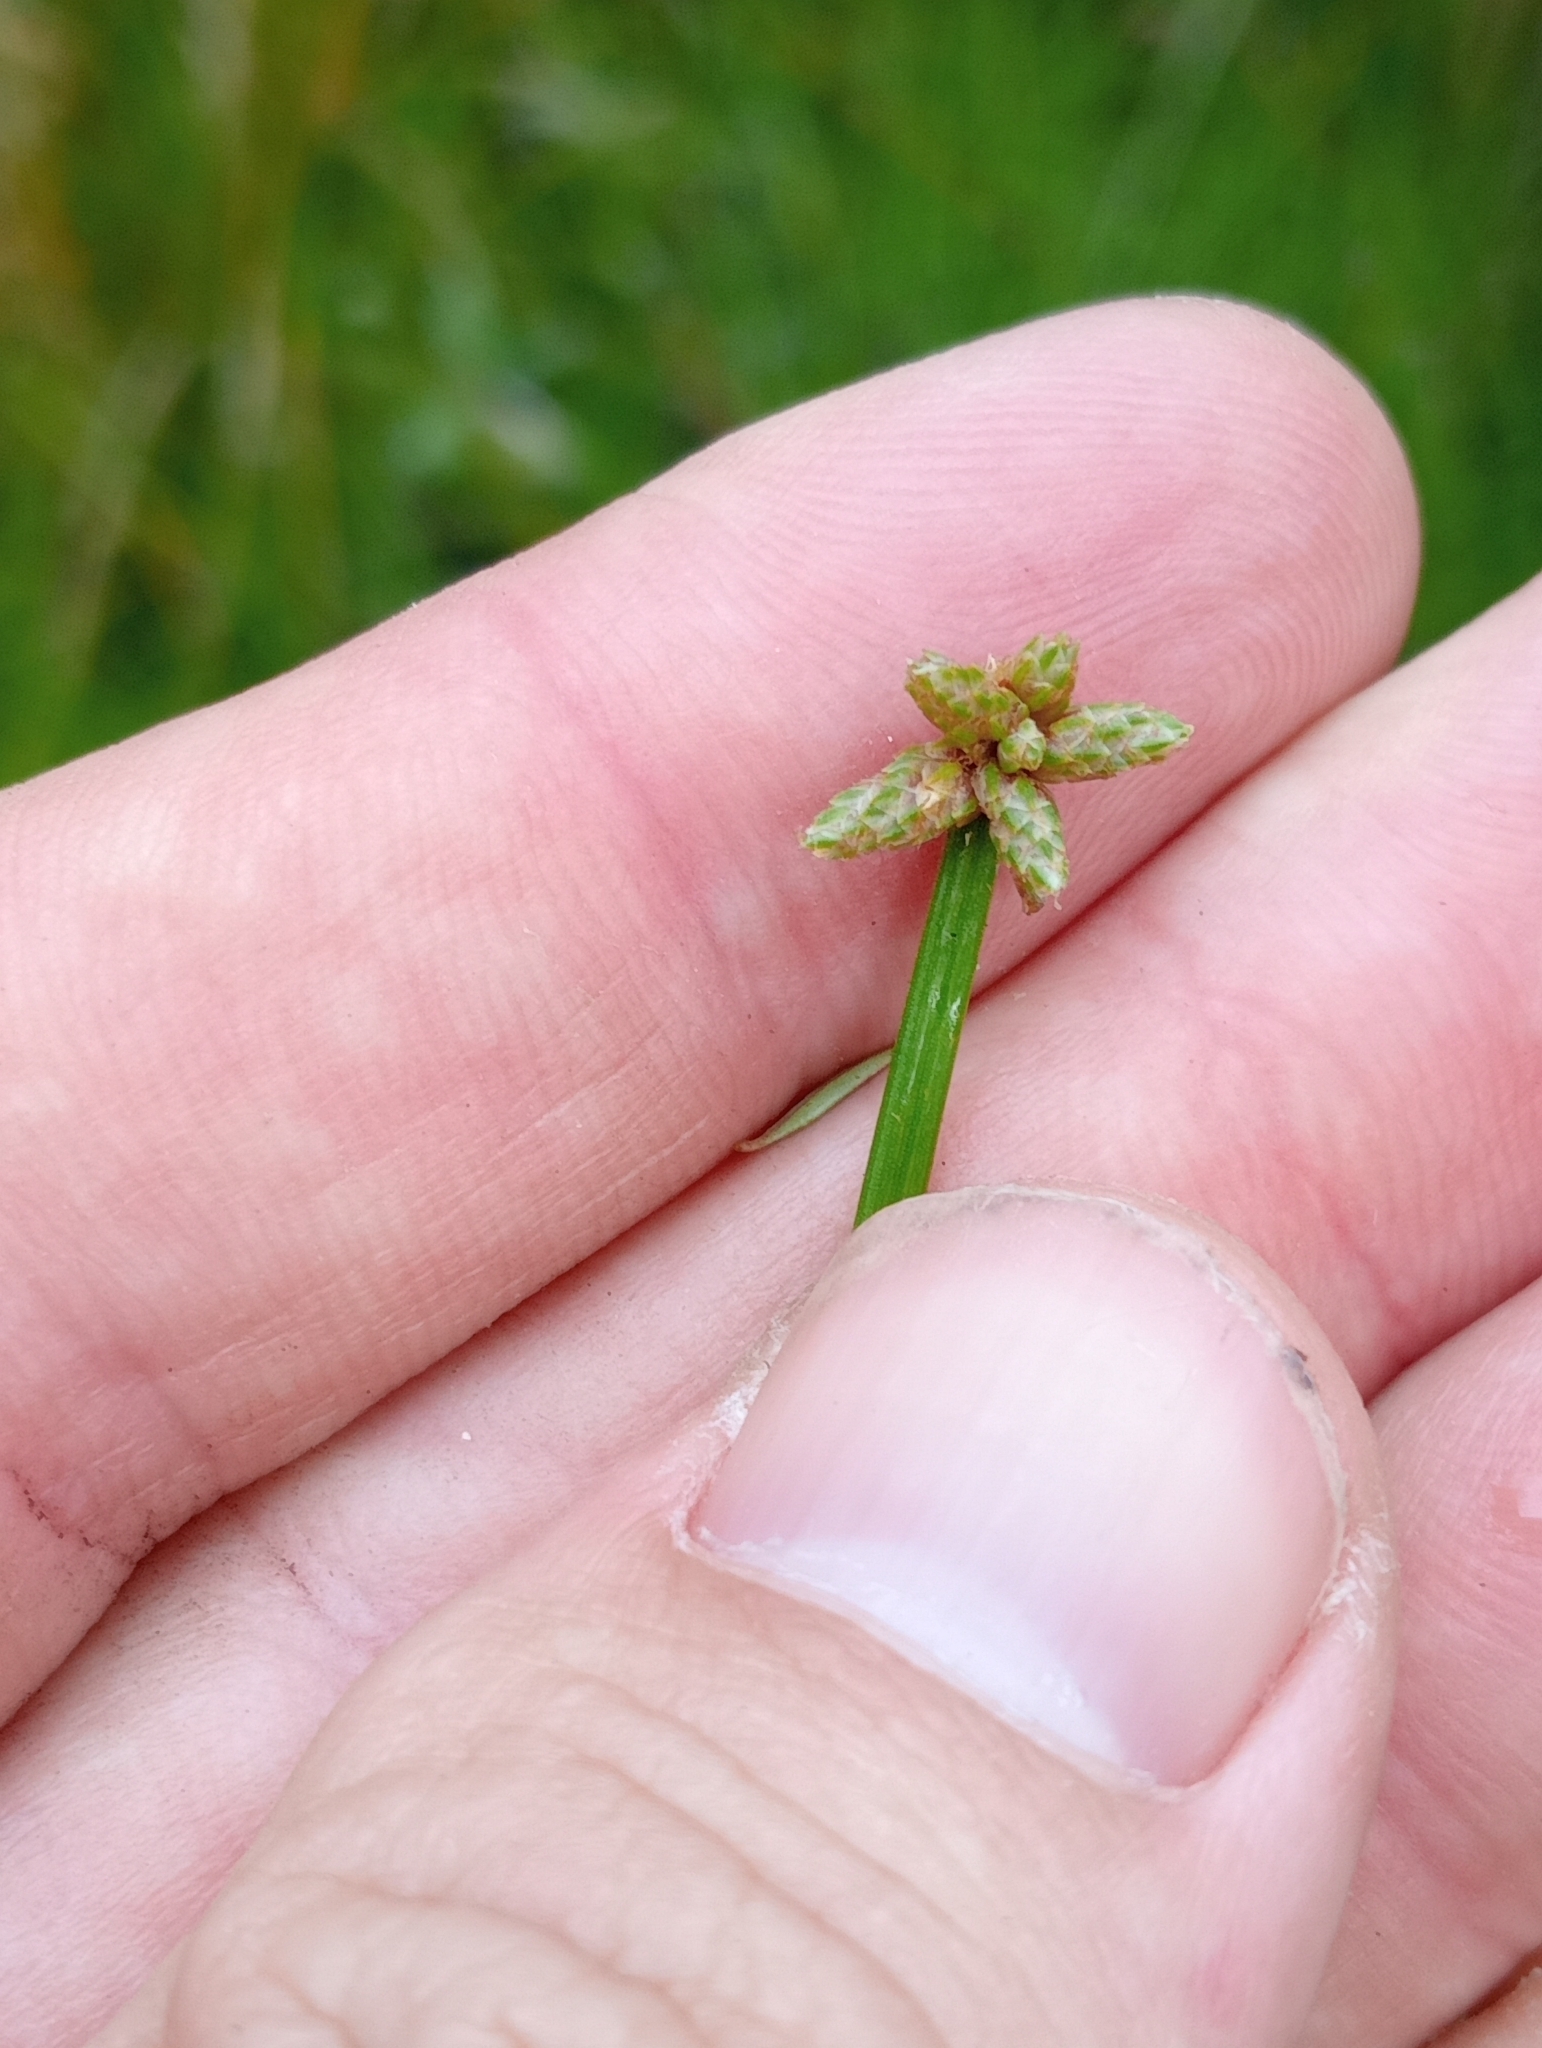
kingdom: Plantae
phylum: Tracheophyta
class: Liliopsida
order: Poales
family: Cyperaceae
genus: Isolepis
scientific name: Isolepis distigmatosa
